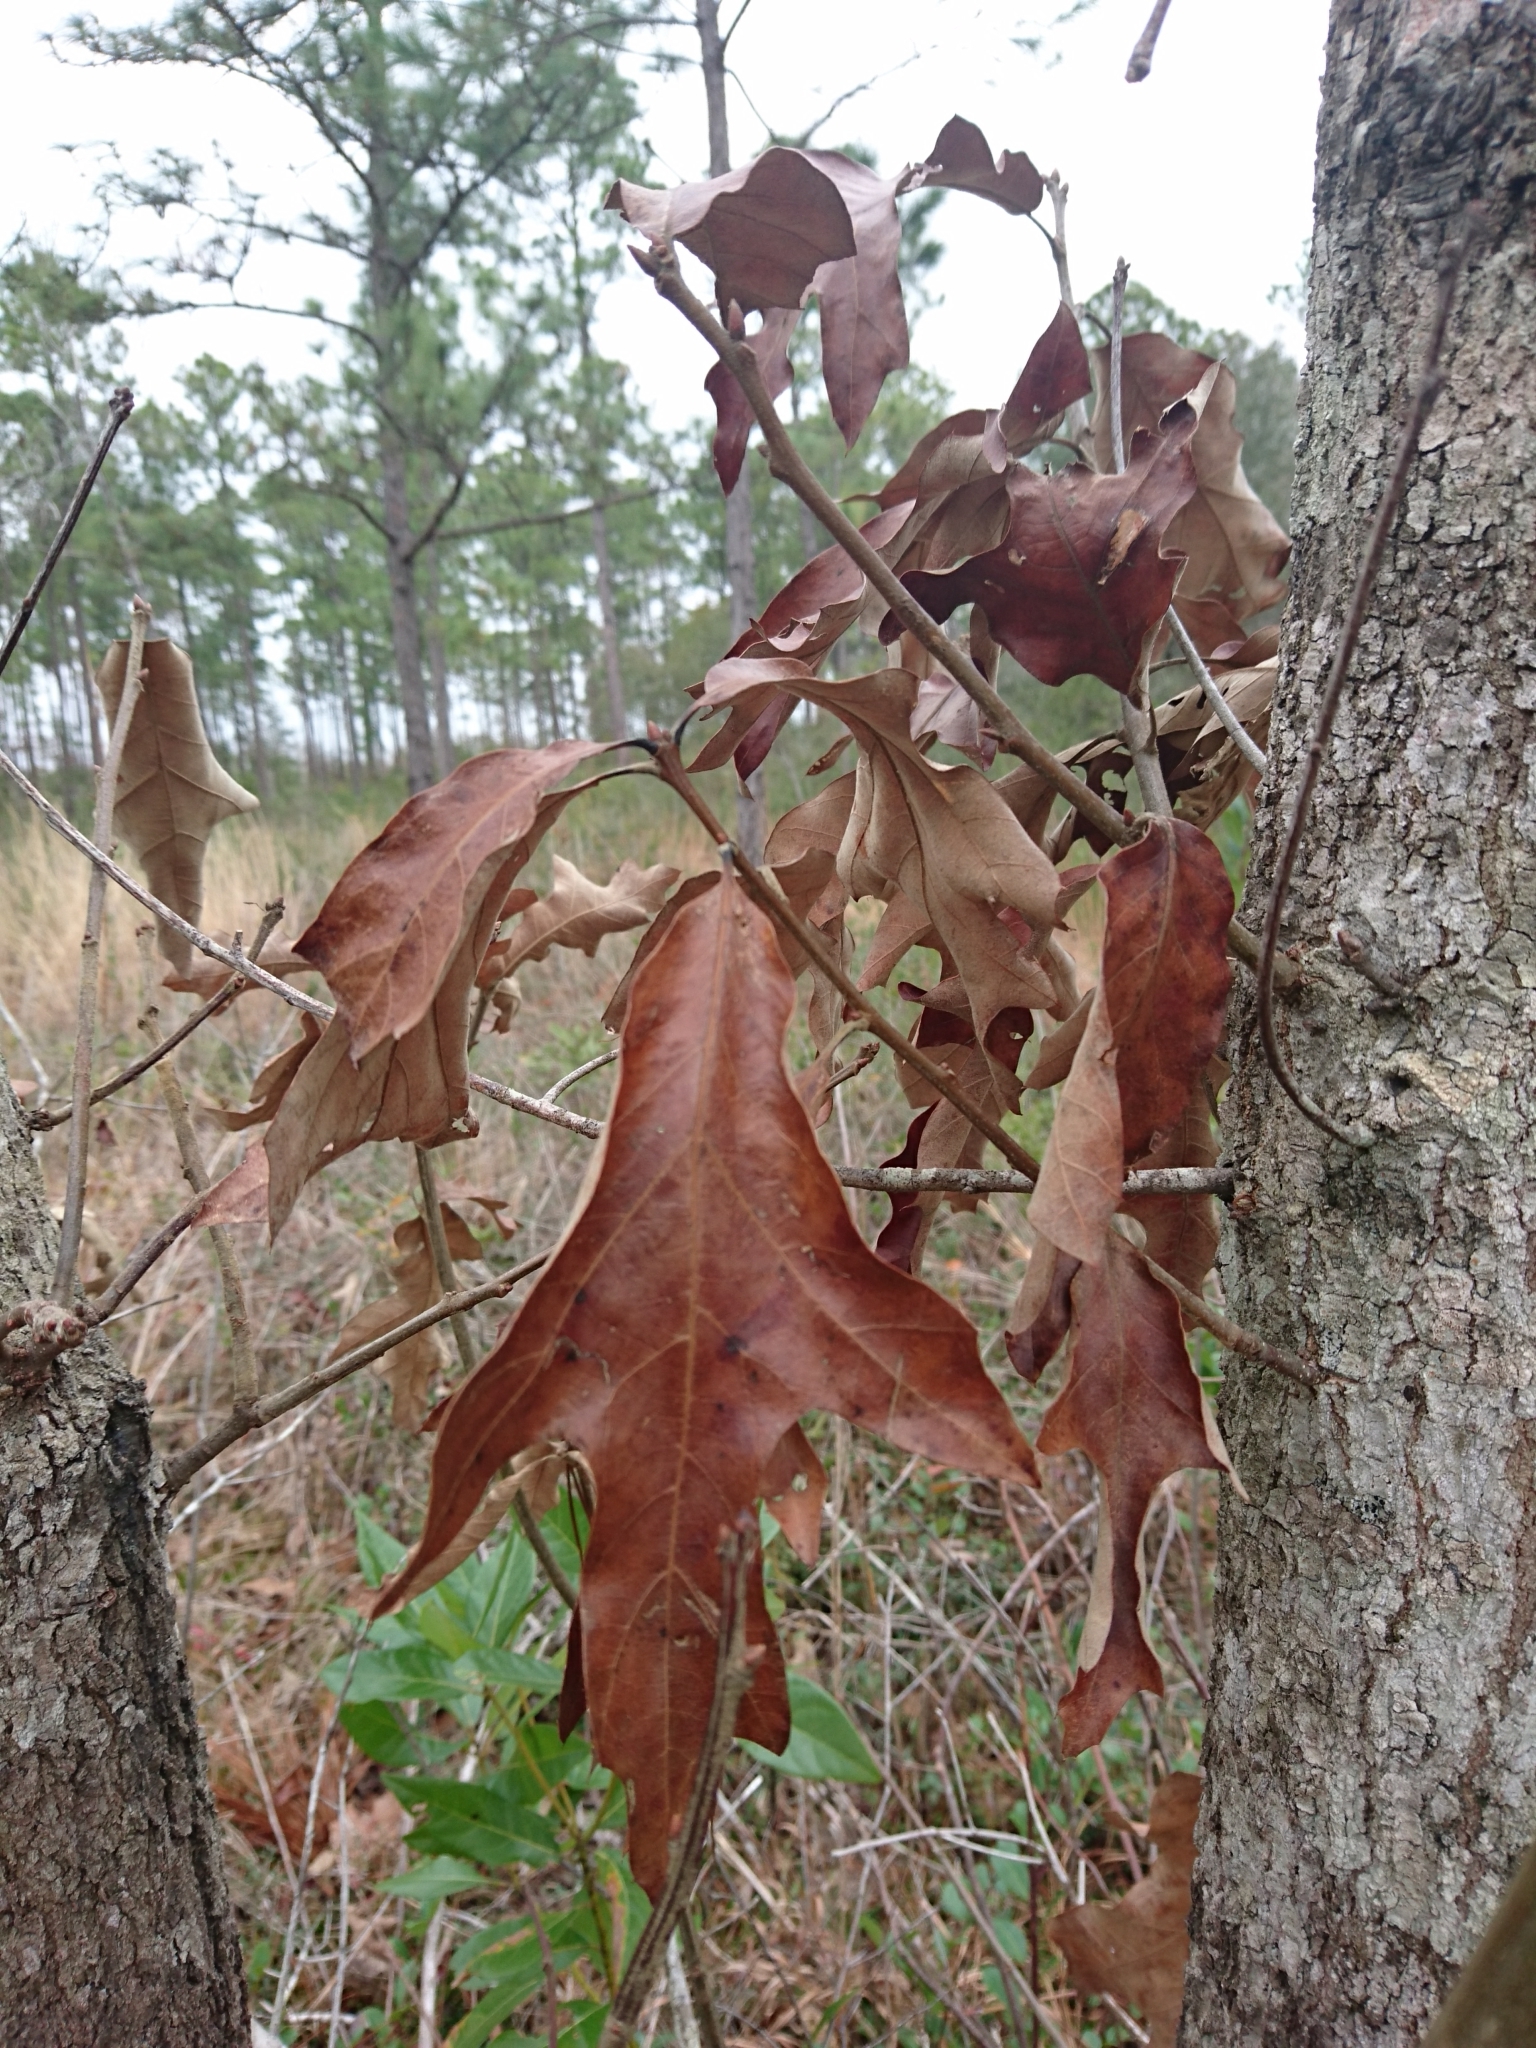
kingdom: Plantae
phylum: Tracheophyta
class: Magnoliopsida
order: Fagales
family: Fagaceae
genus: Quercus
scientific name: Quercus falcata
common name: Southern red oak
